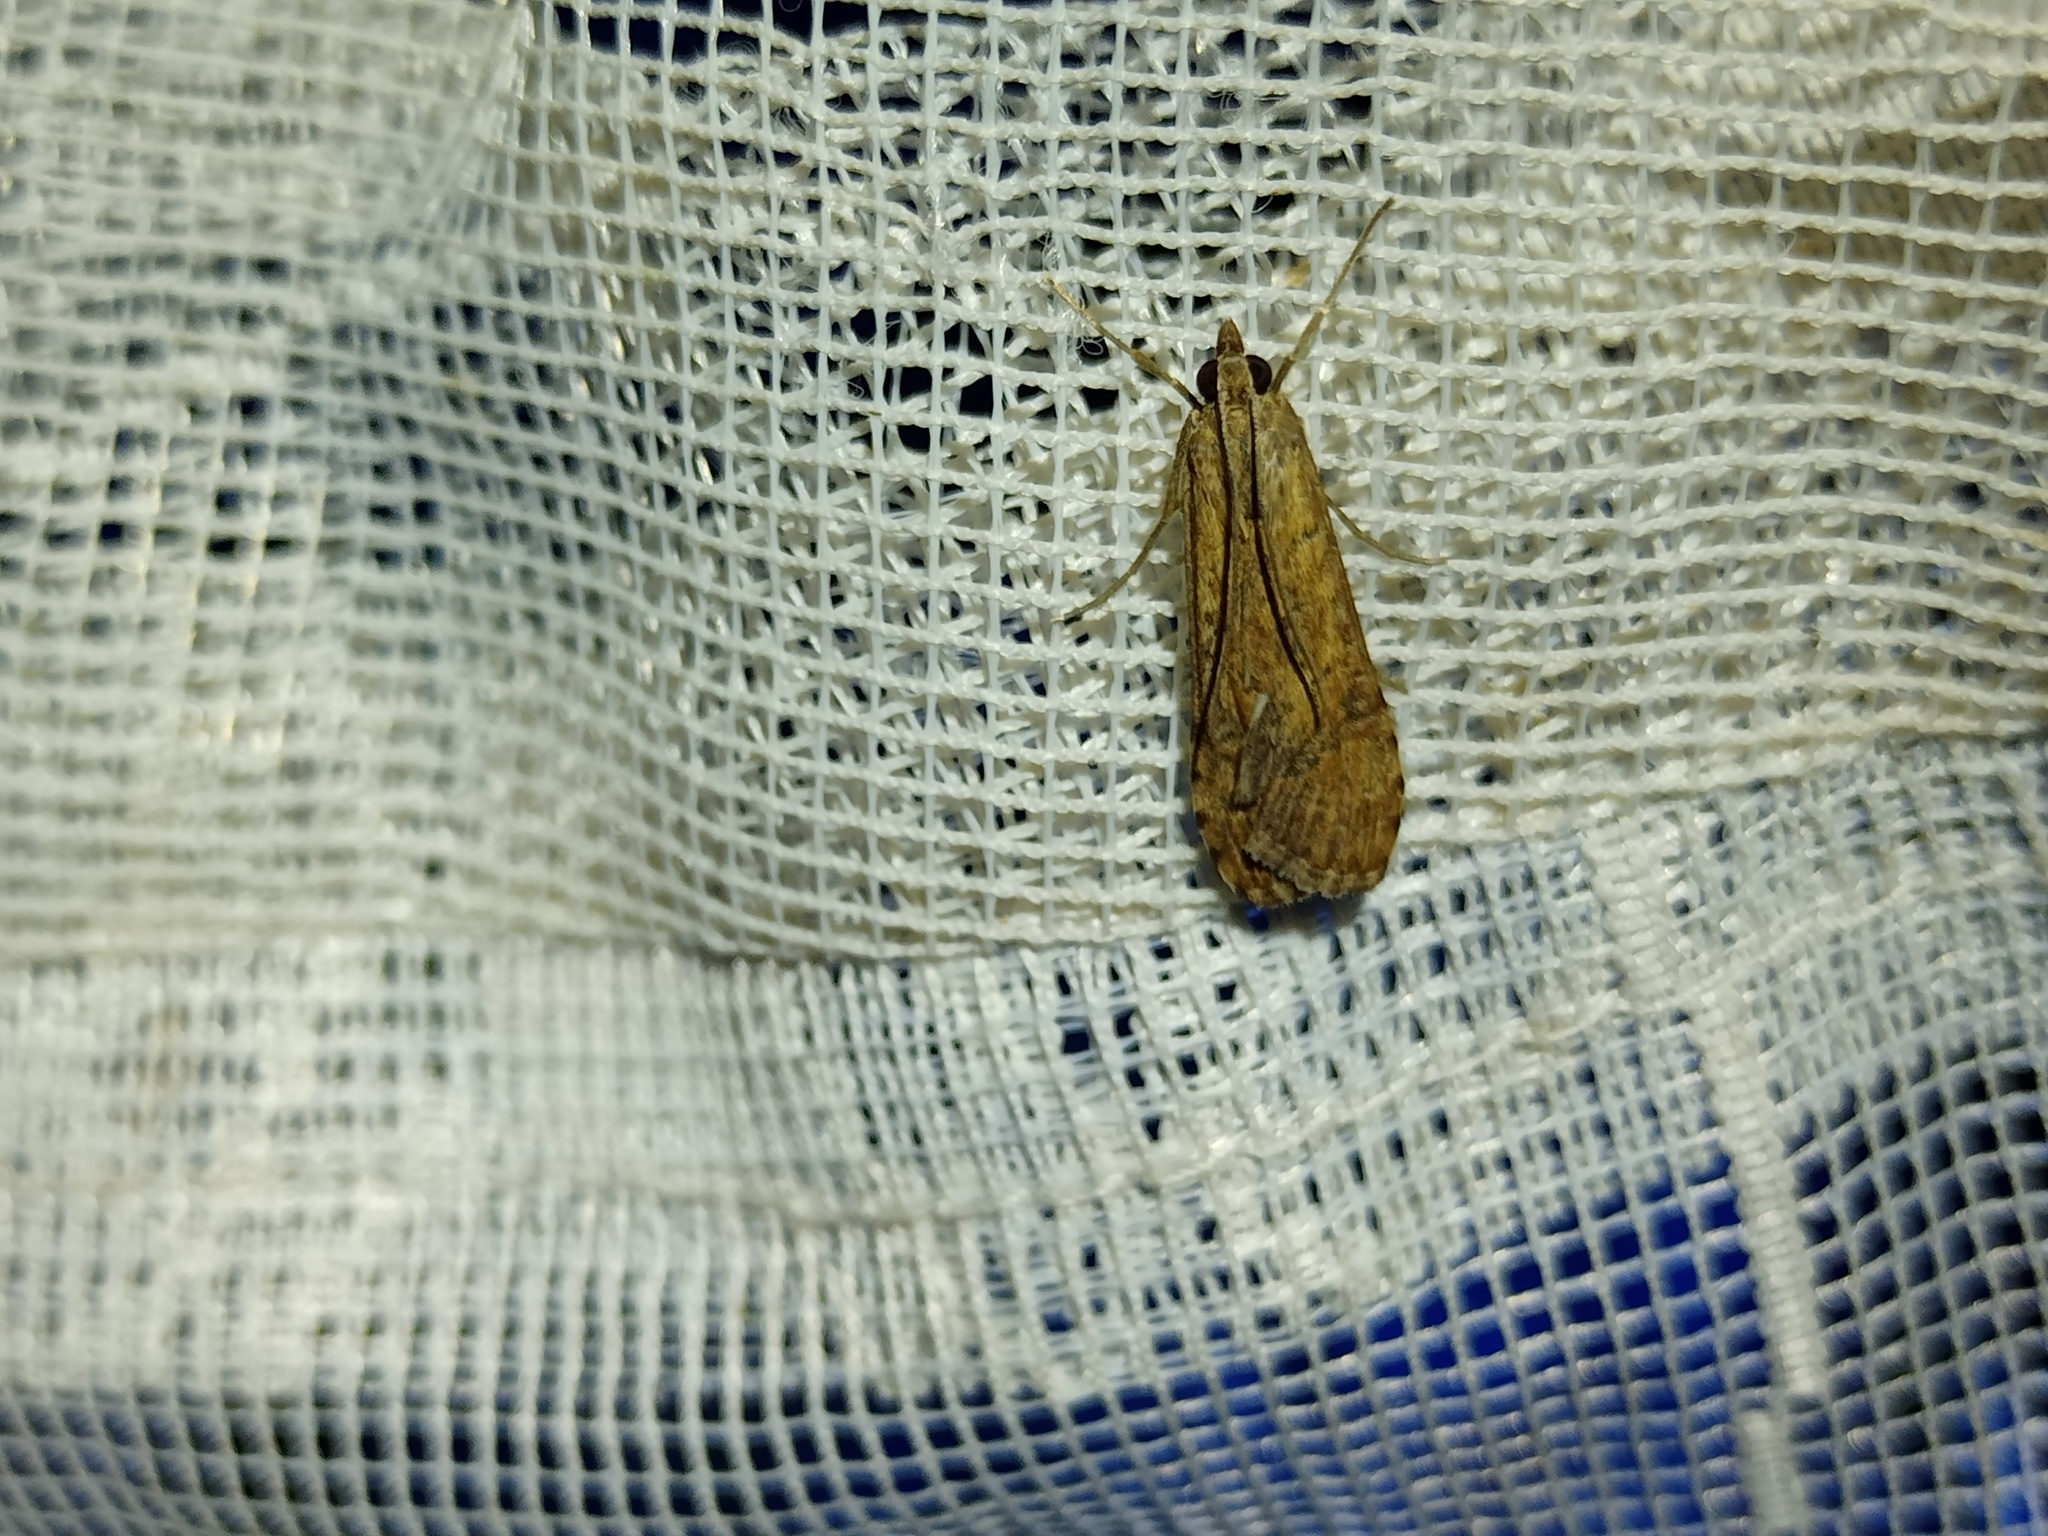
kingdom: Animalia
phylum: Arthropoda
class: Insecta
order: Lepidoptera
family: Crambidae
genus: Nomophila
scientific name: Nomophila noctuella
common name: Rush veneer
